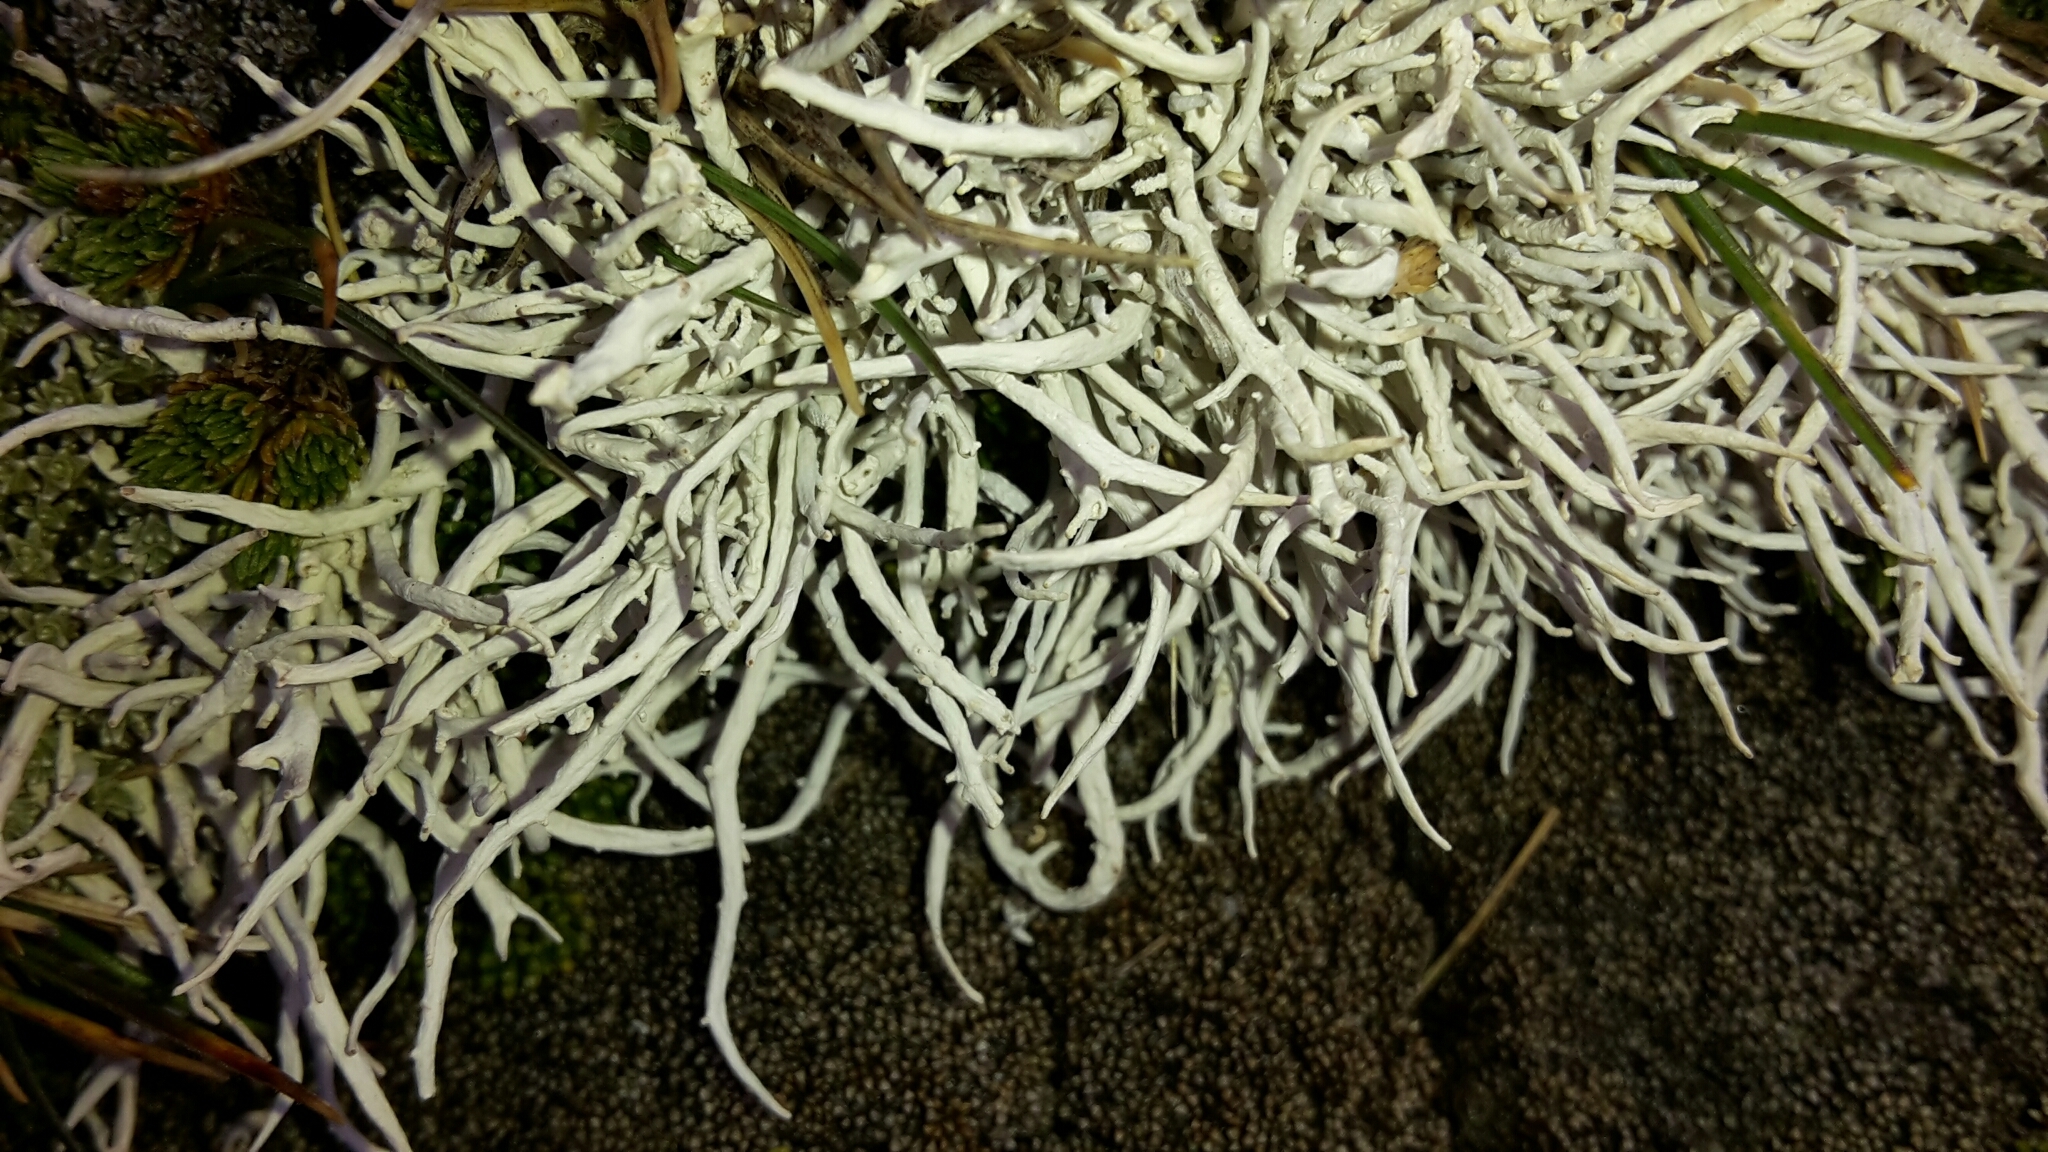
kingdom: Fungi
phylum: Ascomycota
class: Lecanoromycetes
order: Pertusariales
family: Icmadophilaceae
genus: Thamnolia
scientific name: Thamnolia vermicularis
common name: Whiteworm lichen
